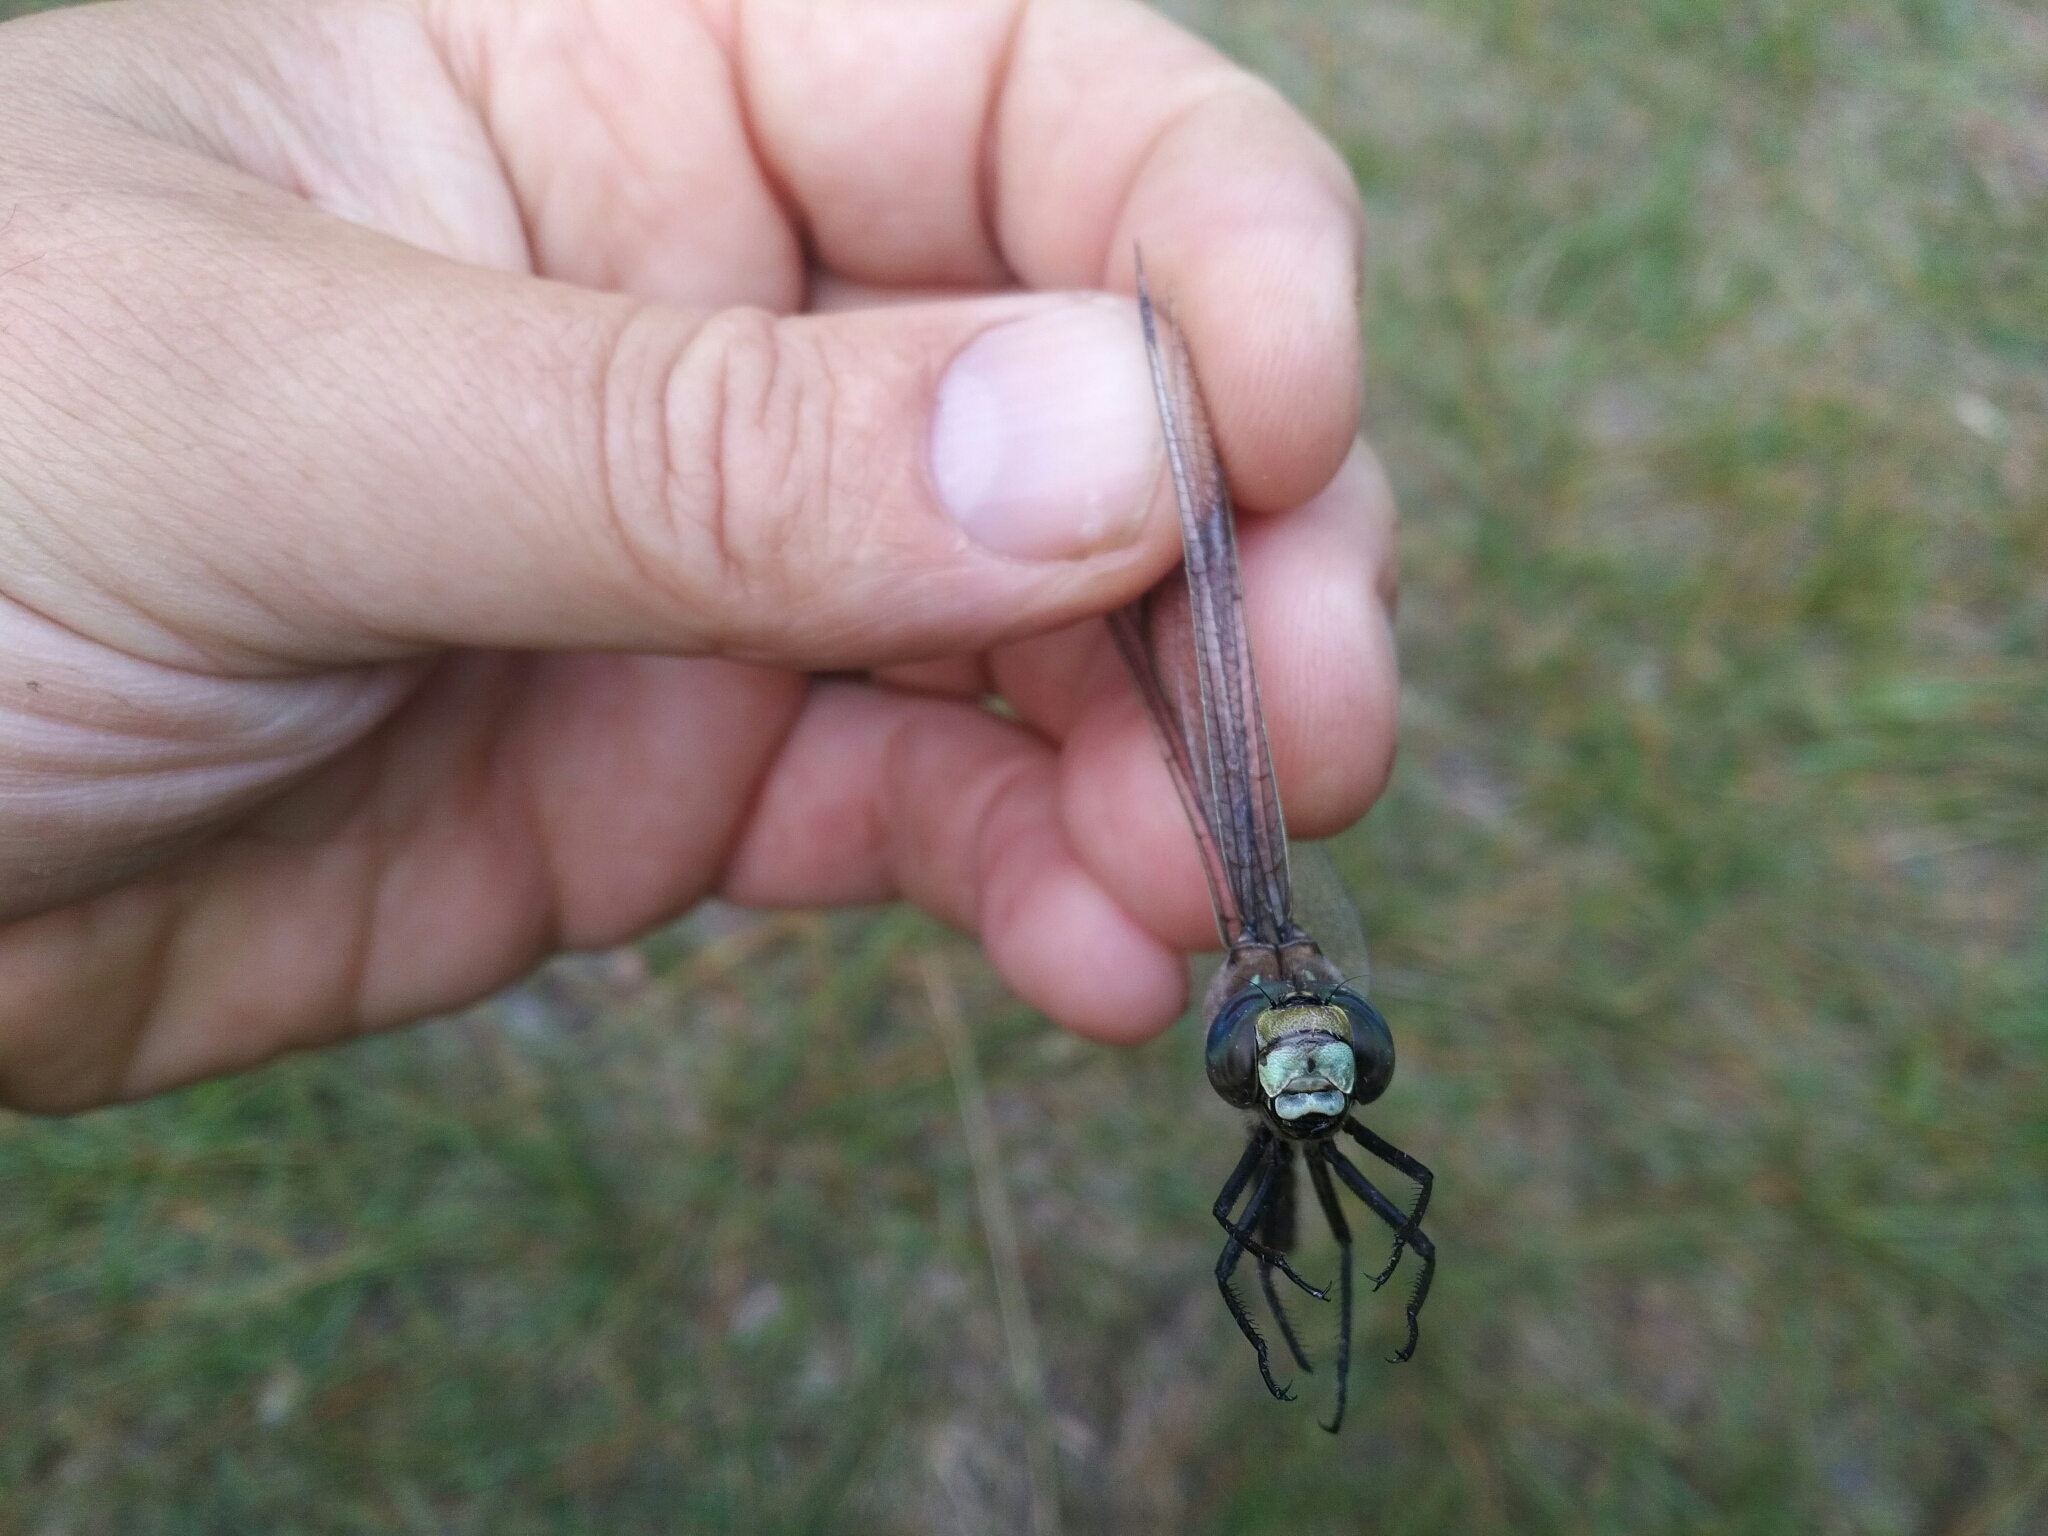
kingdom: Animalia
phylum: Arthropoda
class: Insecta
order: Odonata
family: Aeshnidae
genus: Aeshna
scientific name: Aeshna interrupta
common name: Variable darner
